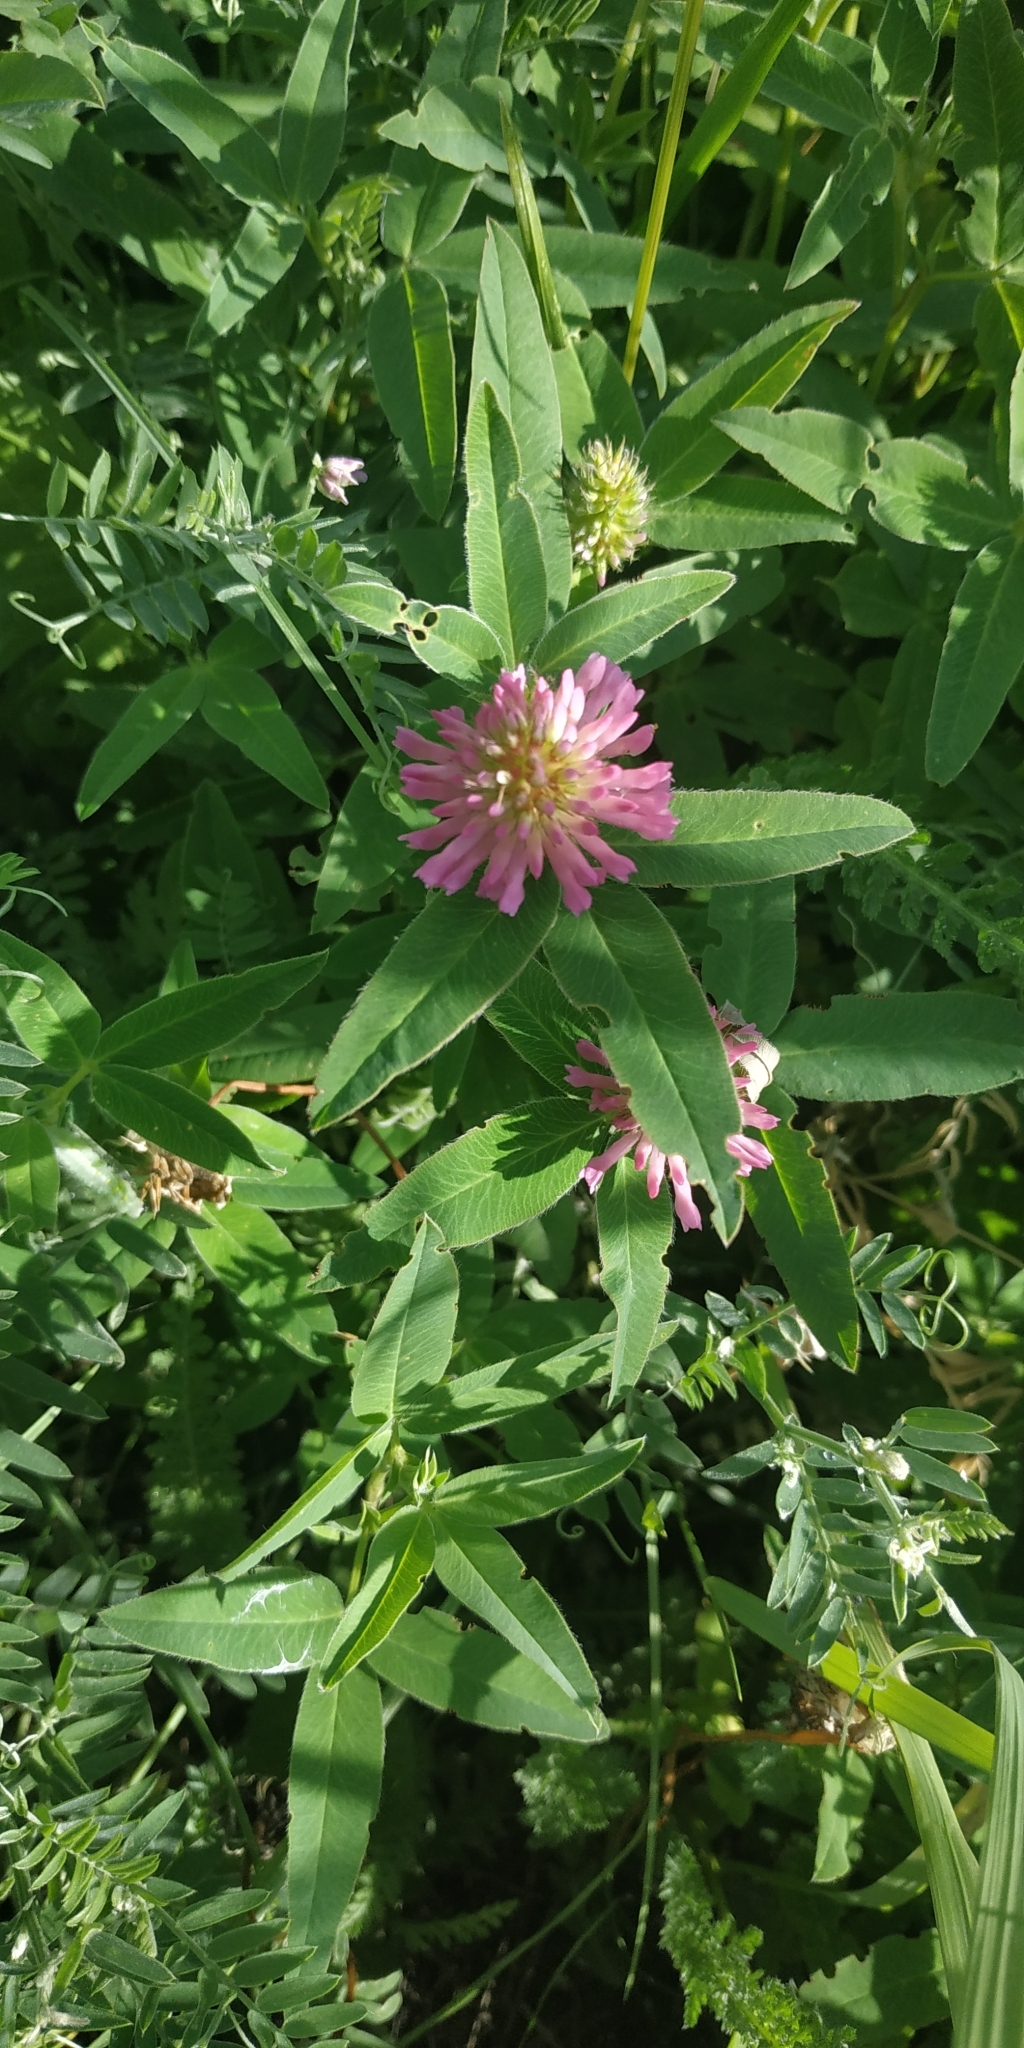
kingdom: Plantae
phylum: Tracheophyta
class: Magnoliopsida
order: Fabales
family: Fabaceae
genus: Trifolium
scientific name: Trifolium medium
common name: Zigzag clover
